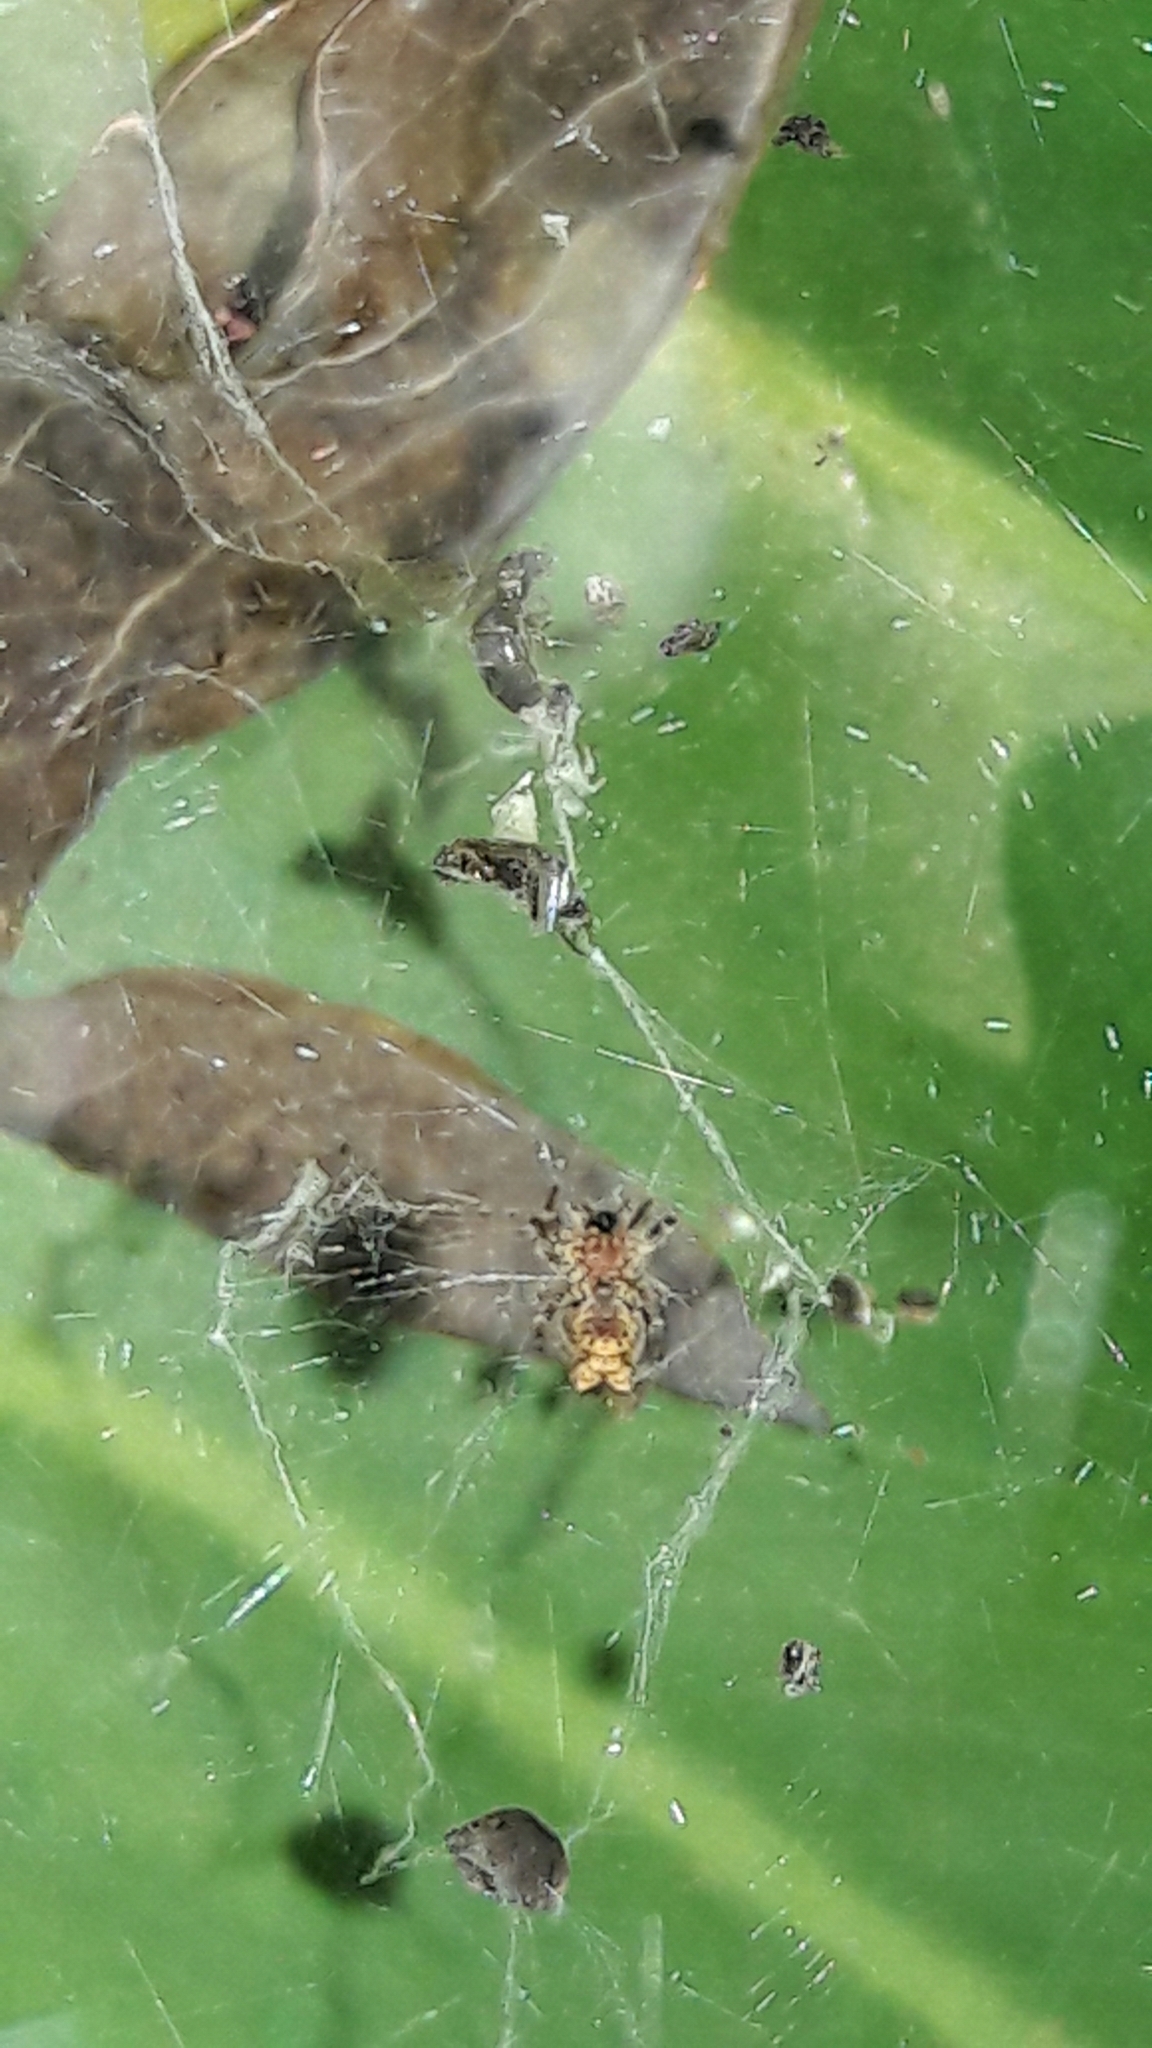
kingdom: Animalia
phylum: Arthropoda
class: Arachnida
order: Araneae
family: Araneidae
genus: Cyrtophora
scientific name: Cyrtophora citricola
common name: Orb weavers
